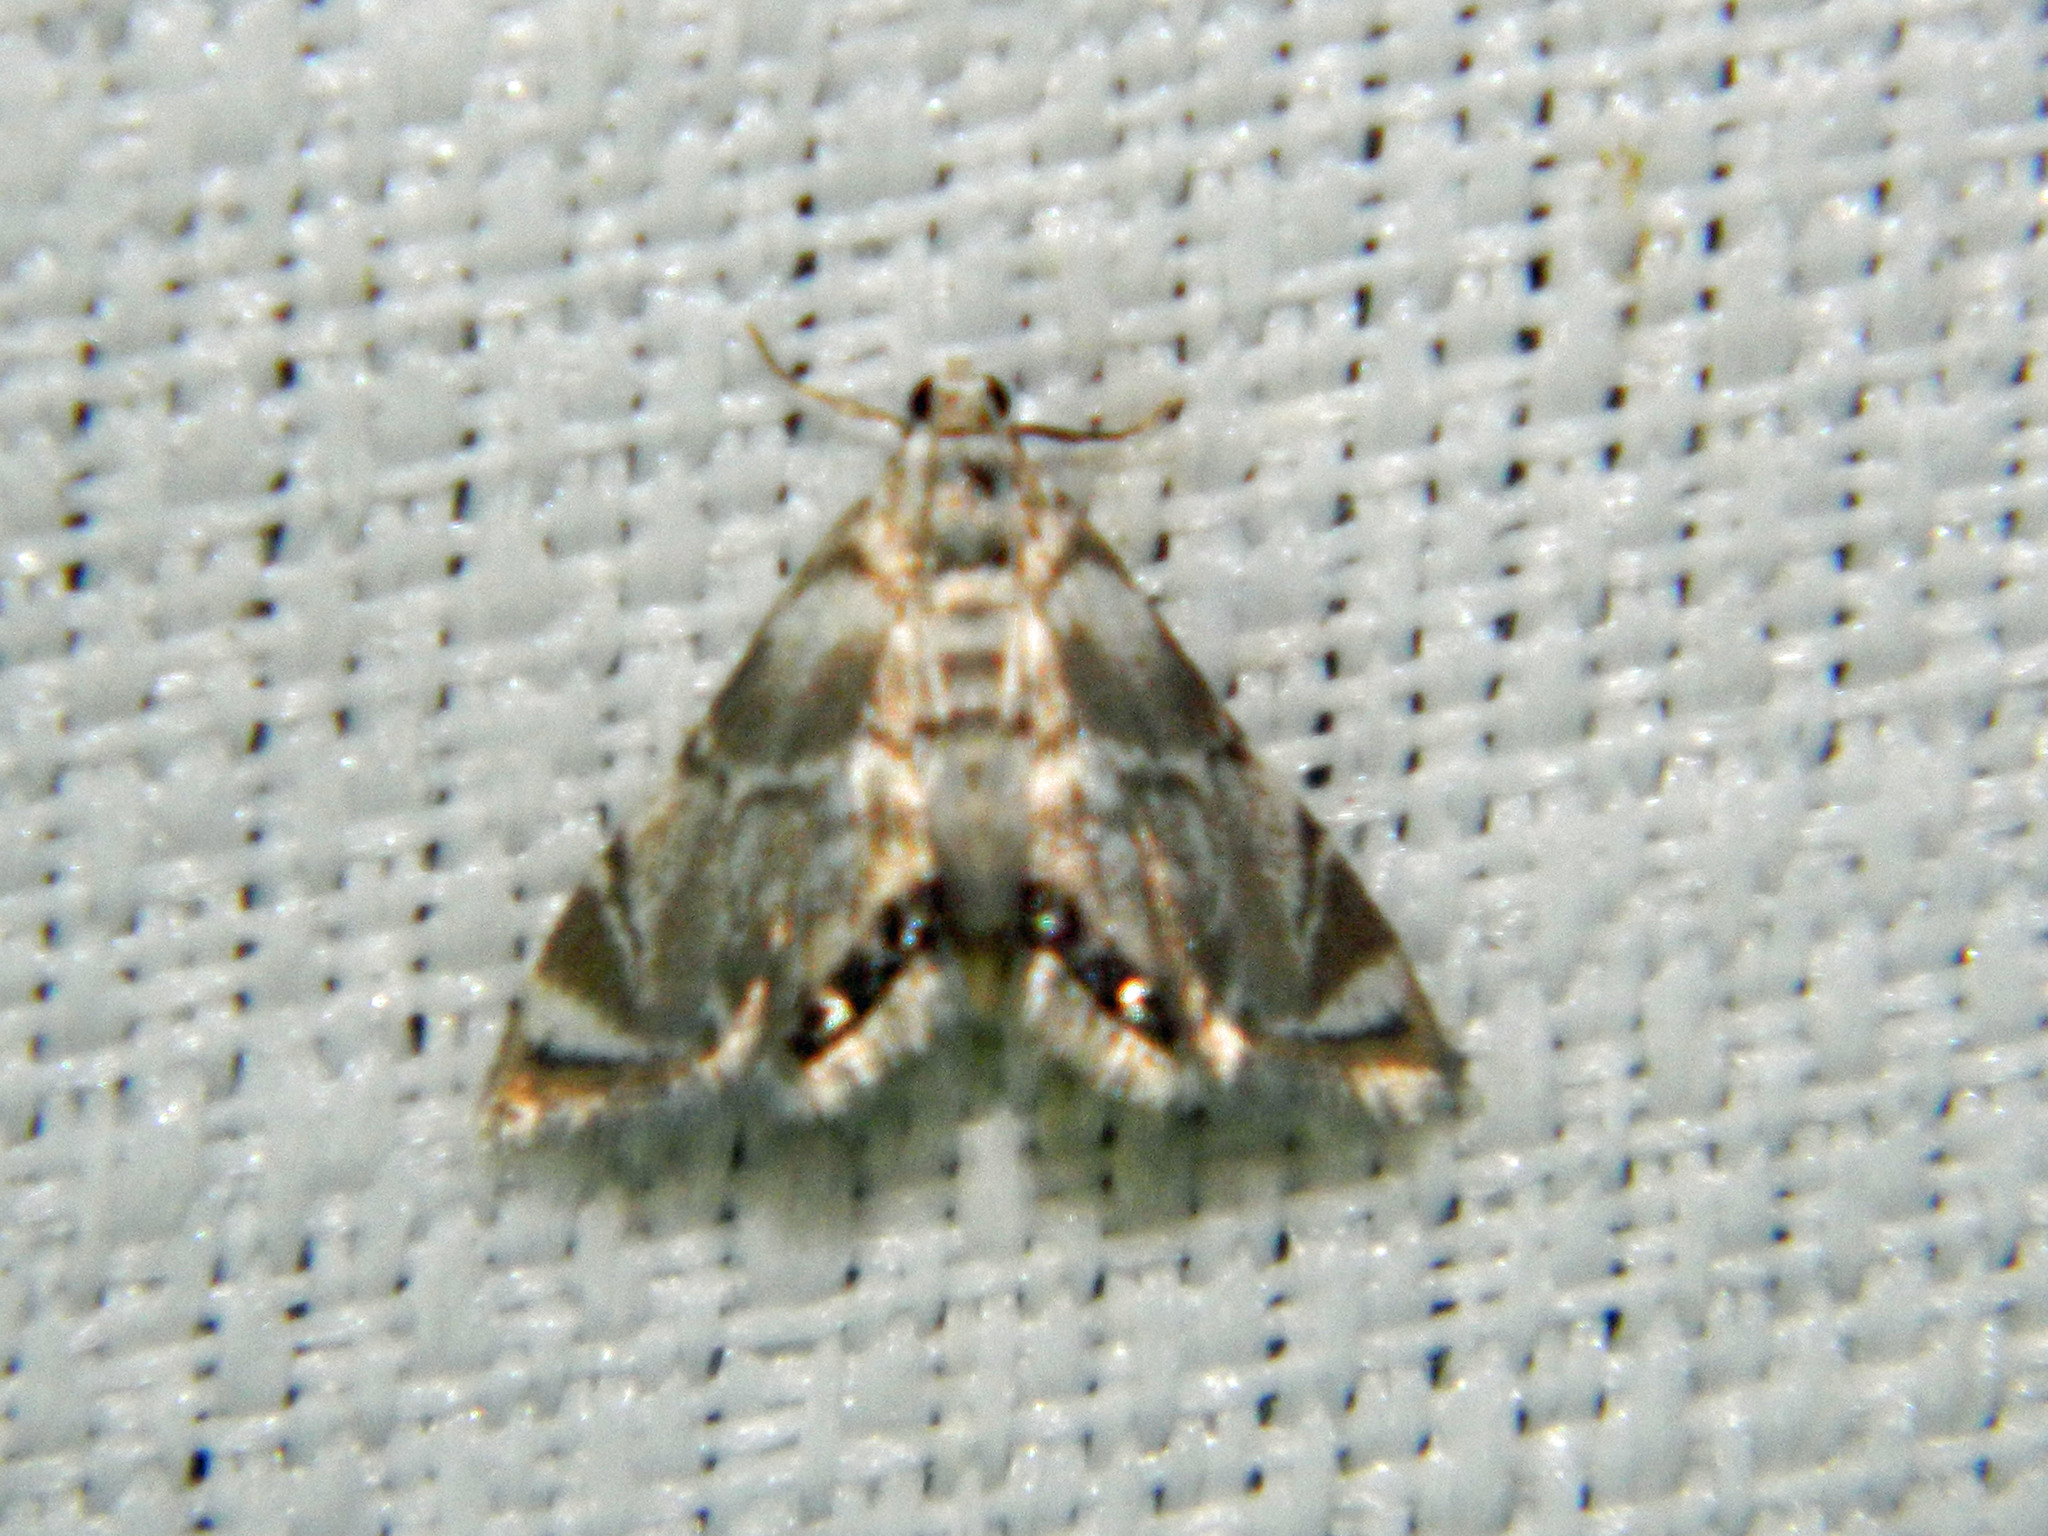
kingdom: Animalia
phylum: Arthropoda
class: Insecta
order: Lepidoptera
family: Crambidae
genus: Eoparargyractis
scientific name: Eoparargyractis plevie
